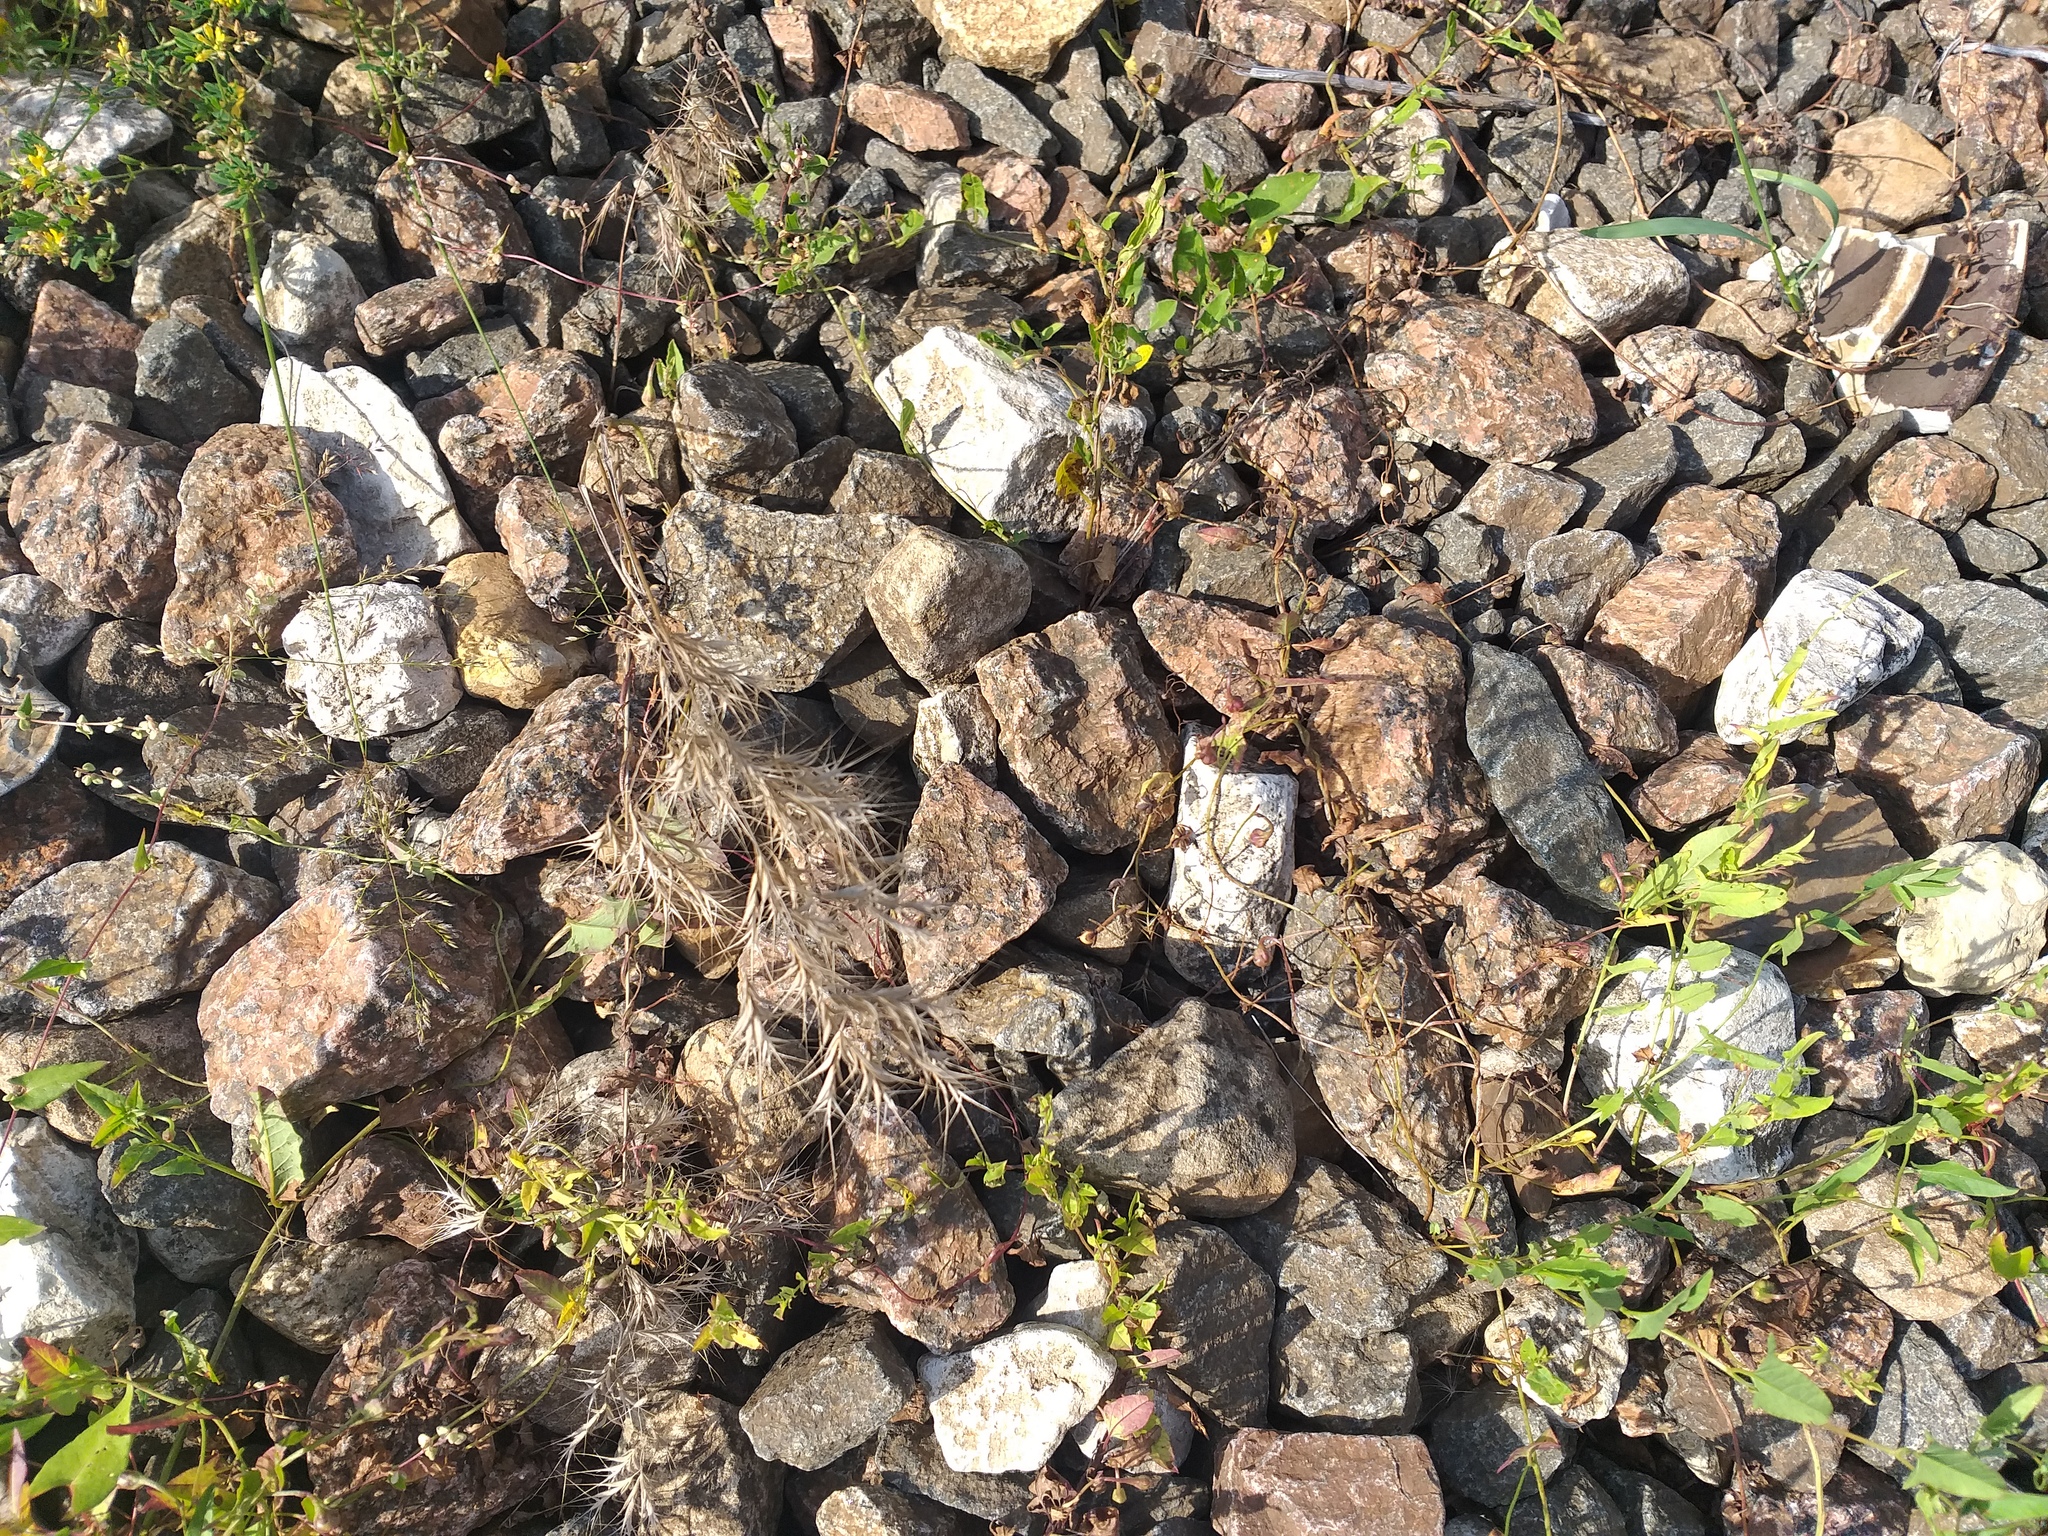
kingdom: Plantae
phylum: Tracheophyta
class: Liliopsida
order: Poales
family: Poaceae
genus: Bromus
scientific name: Bromus tectorum
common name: Cheatgrass
